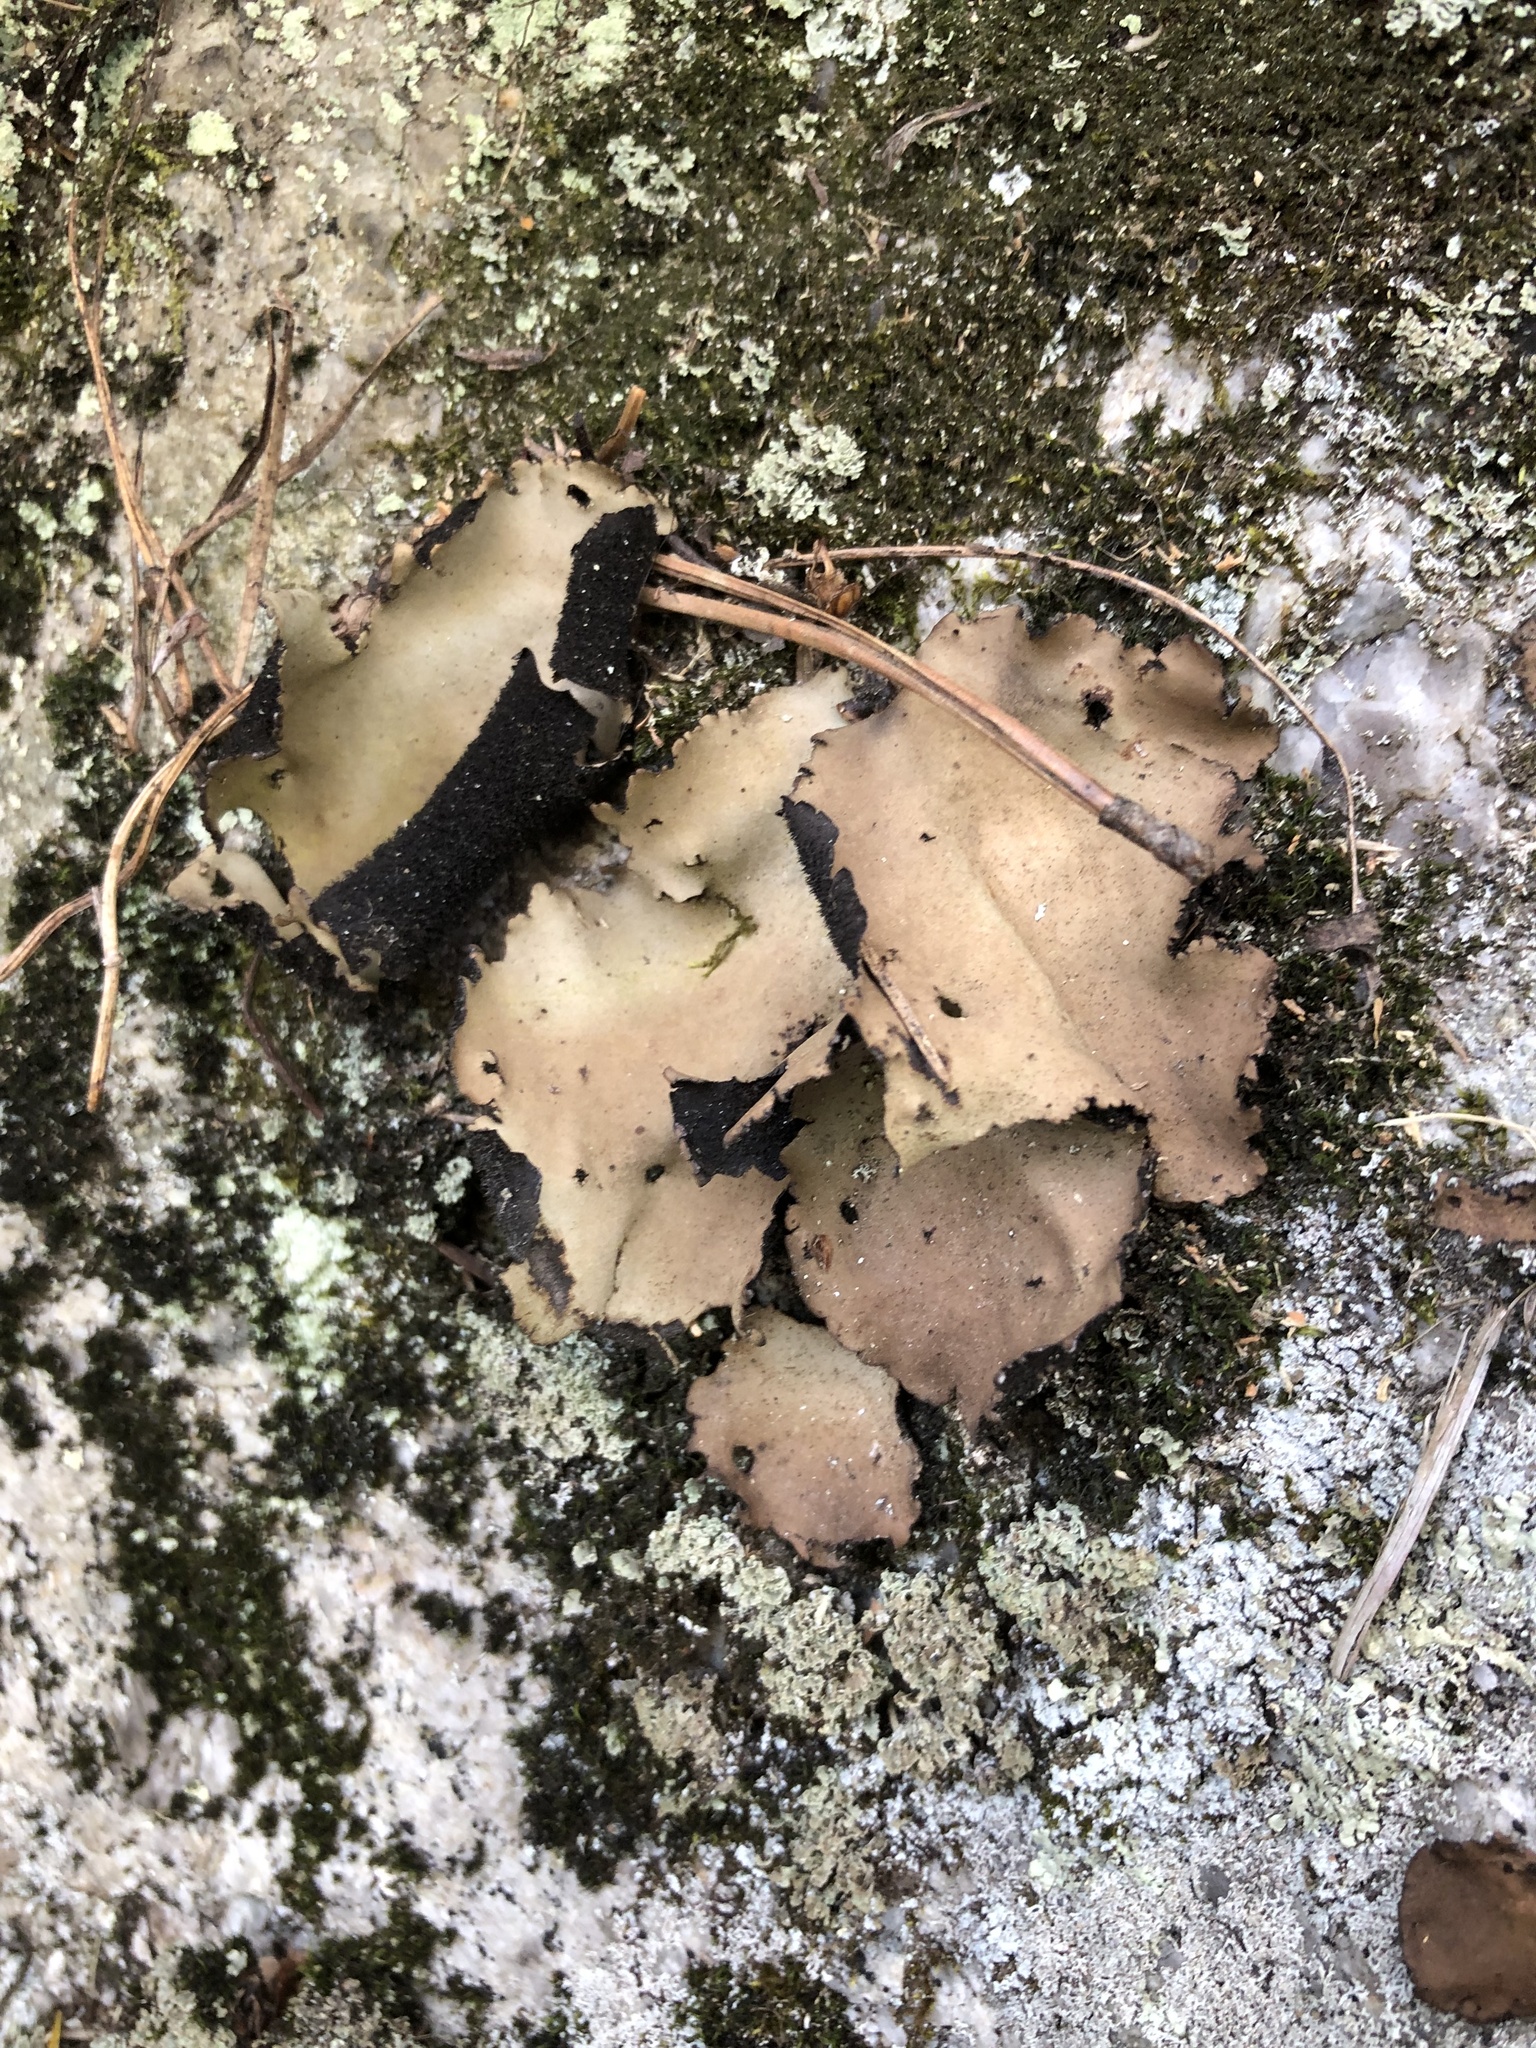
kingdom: Fungi
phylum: Ascomycota
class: Lecanoromycetes
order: Umbilicariales
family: Umbilicariaceae
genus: Umbilicaria
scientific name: Umbilicaria mammulata
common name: Smooth rock tripe
